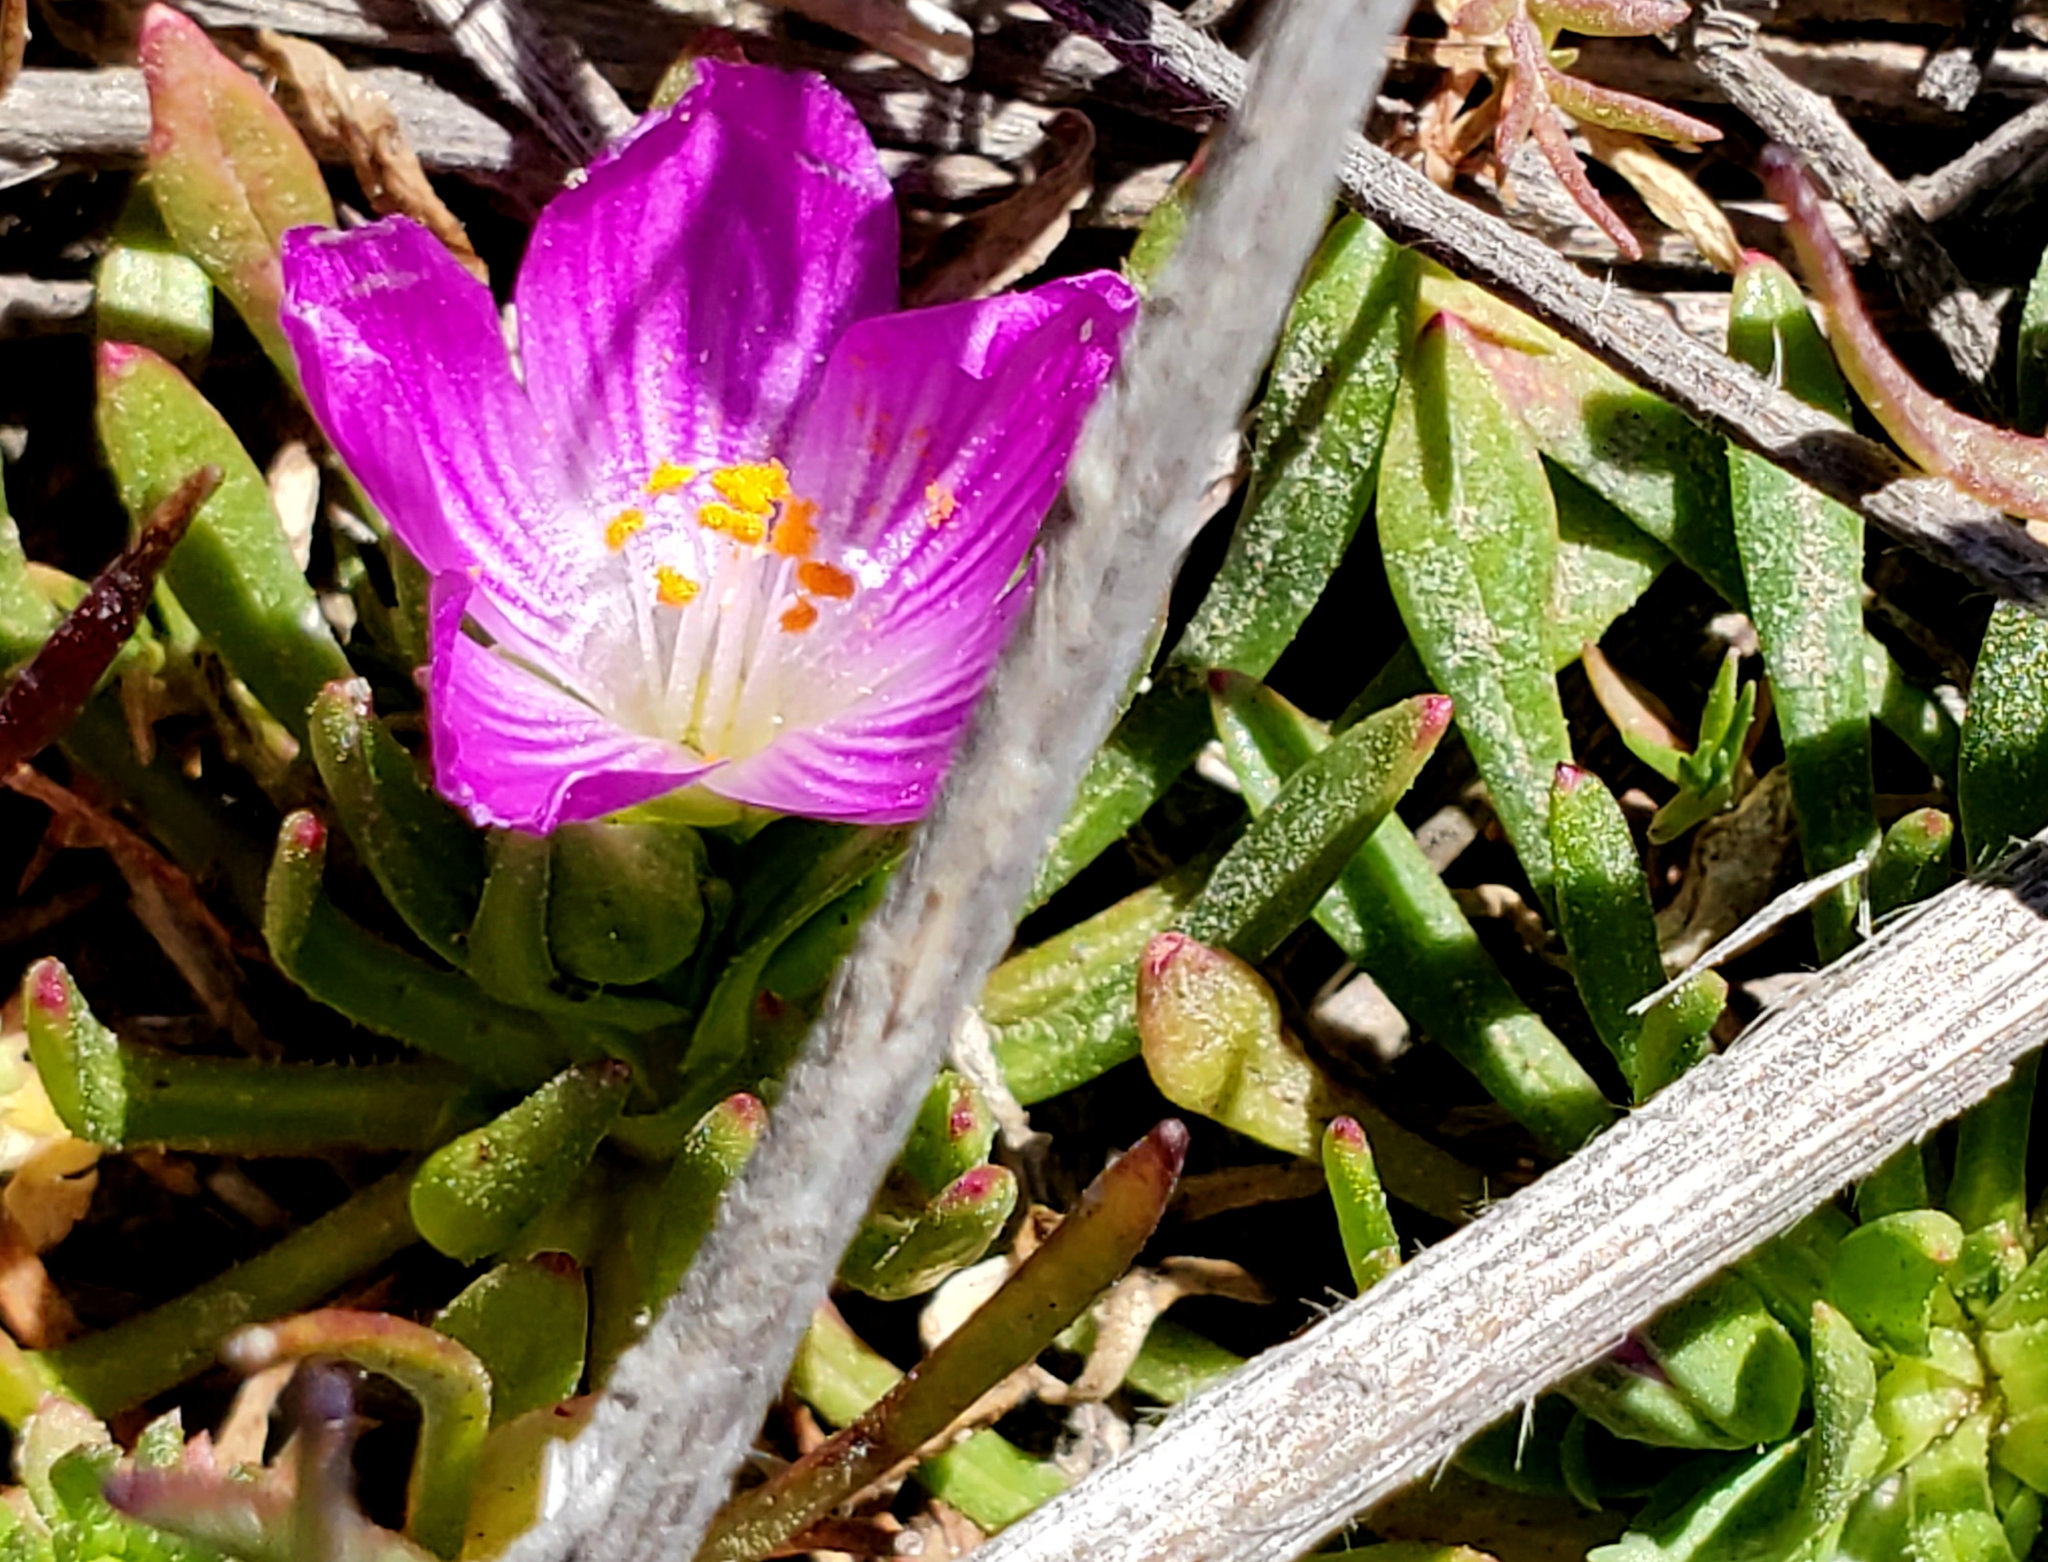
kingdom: Plantae
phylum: Tracheophyta
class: Magnoliopsida
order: Caryophyllales
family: Montiaceae
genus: Calandrinia
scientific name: Calandrinia menziesii
